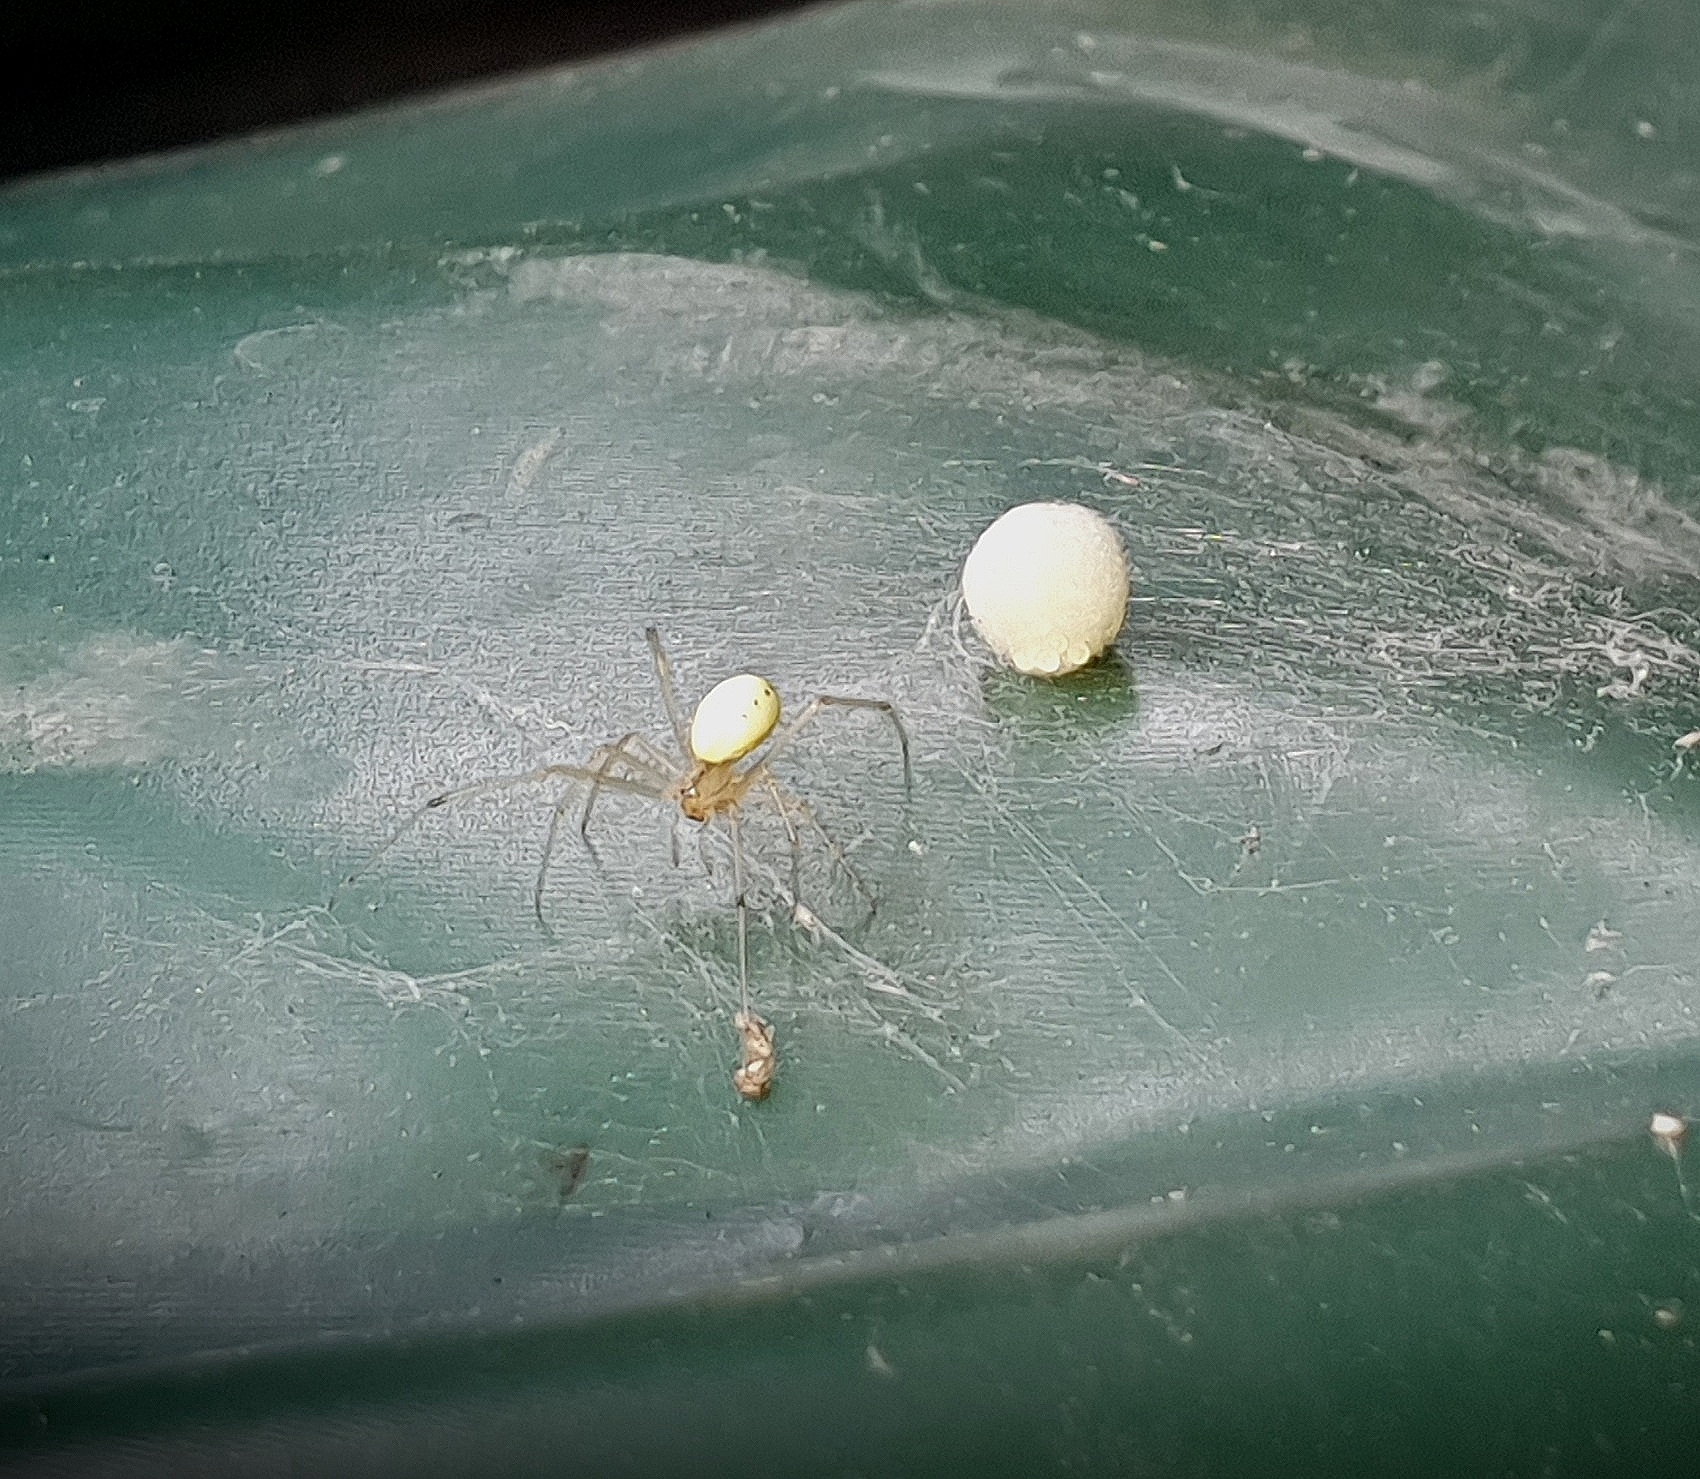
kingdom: Animalia
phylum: Arthropoda
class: Arachnida
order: Araneae
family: Theridiidae
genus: Enoplognatha
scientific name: Enoplognatha ovata
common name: Common candy-striped spider
